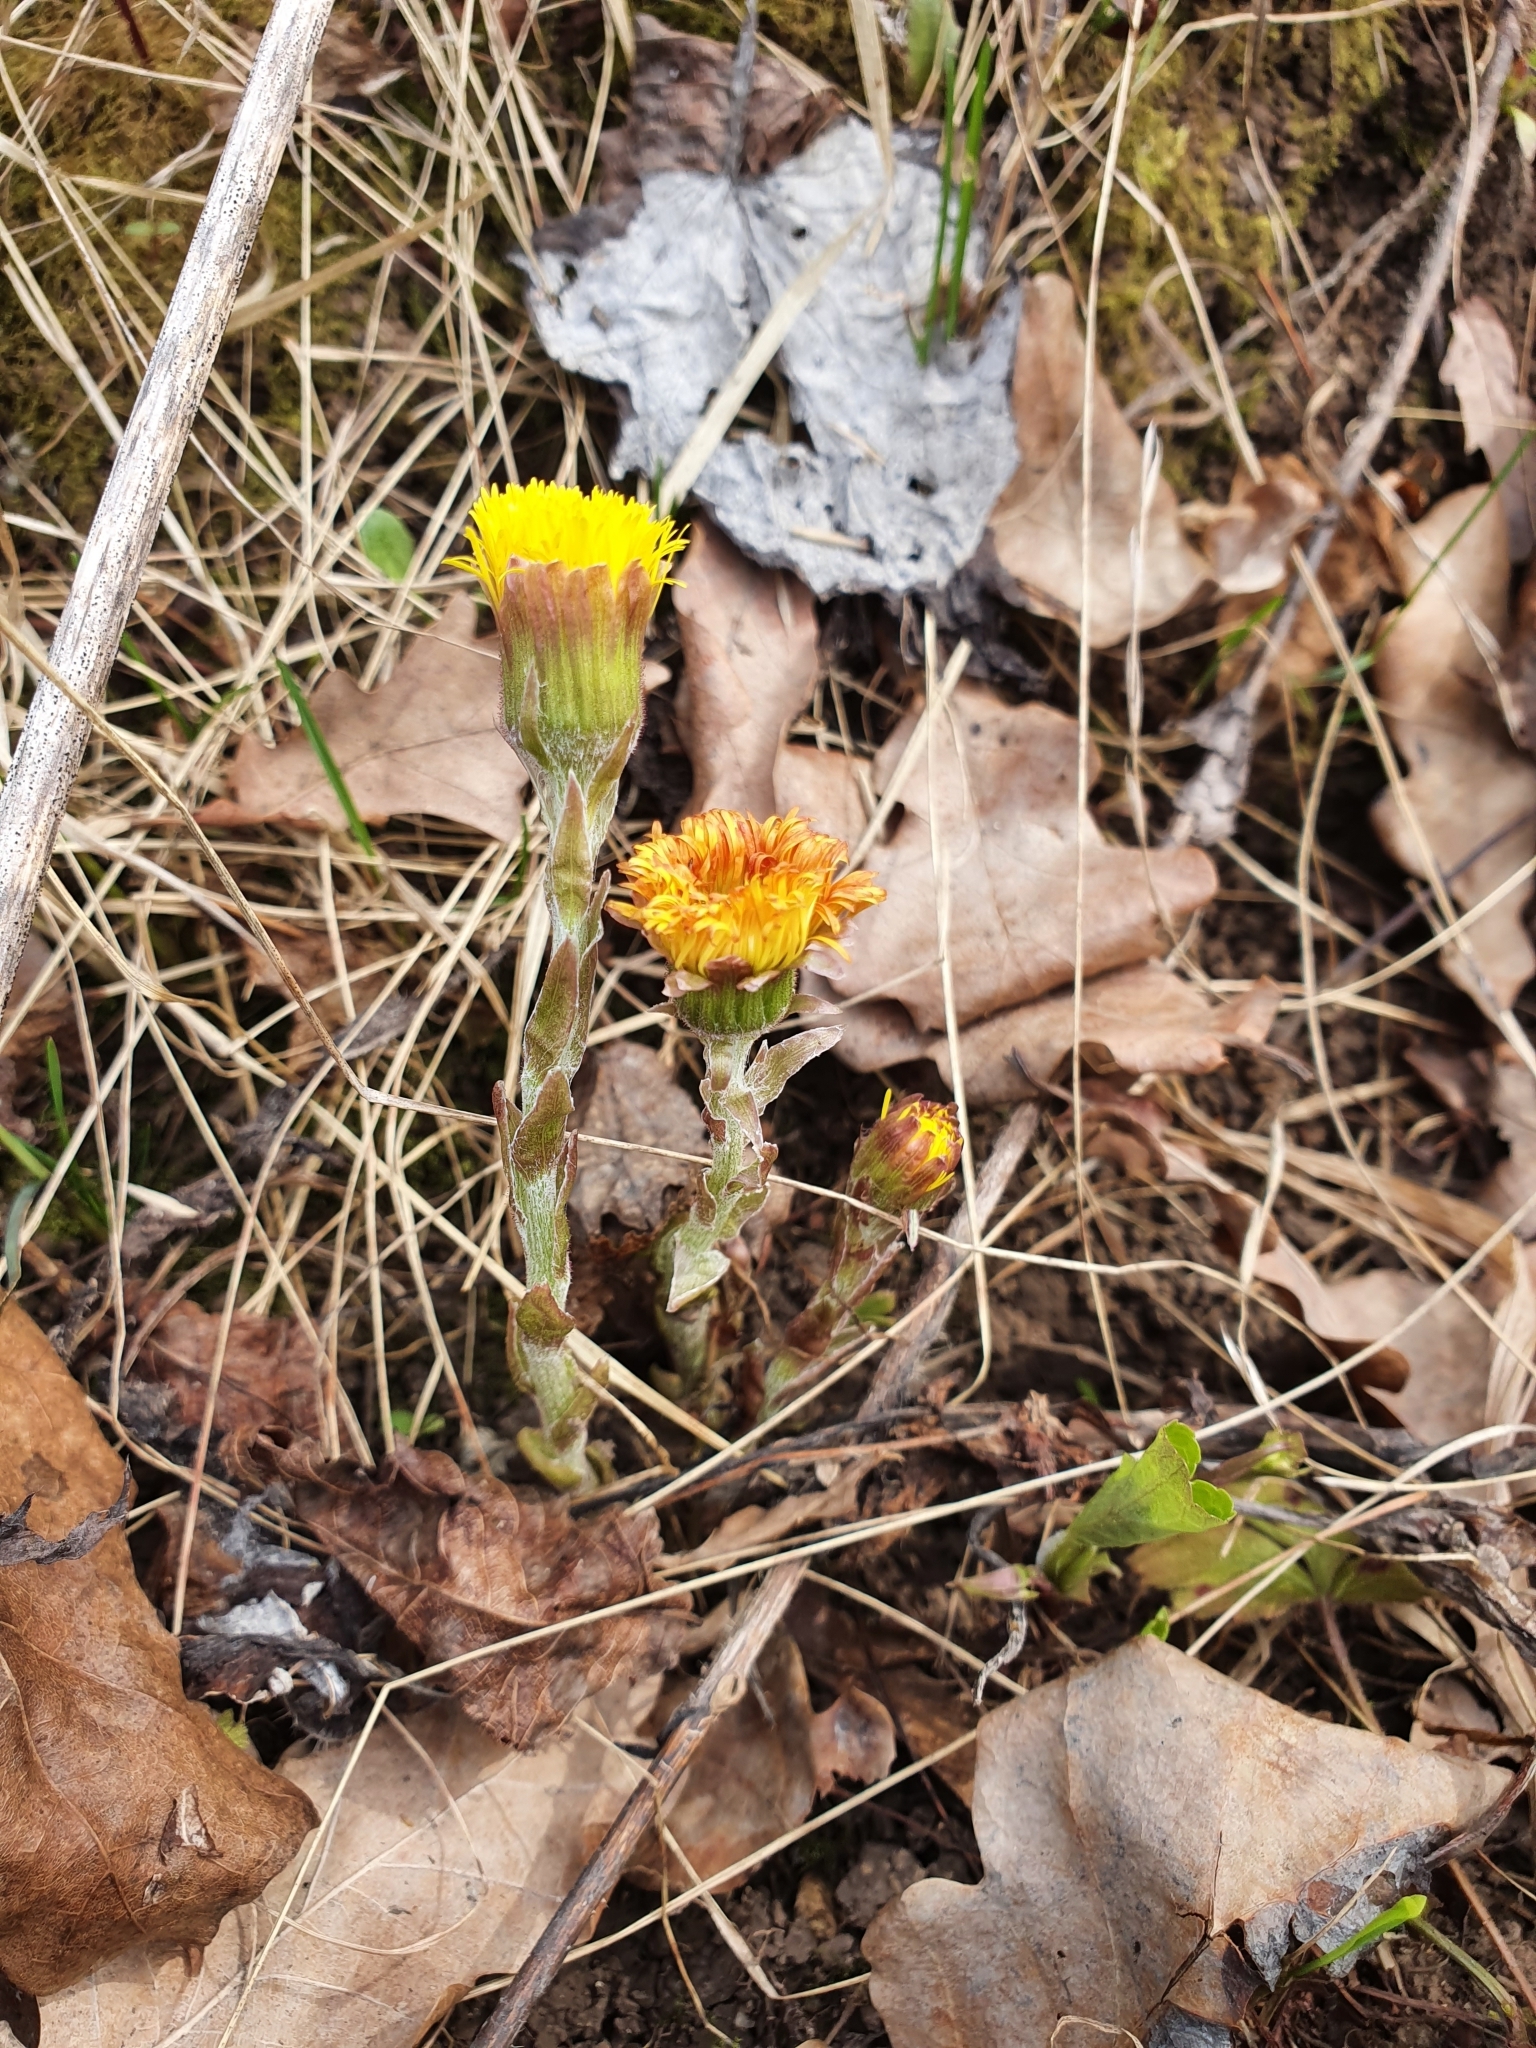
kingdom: Plantae
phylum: Tracheophyta
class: Magnoliopsida
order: Asterales
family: Asteraceae
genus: Tussilago
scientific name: Tussilago farfara
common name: Coltsfoot
